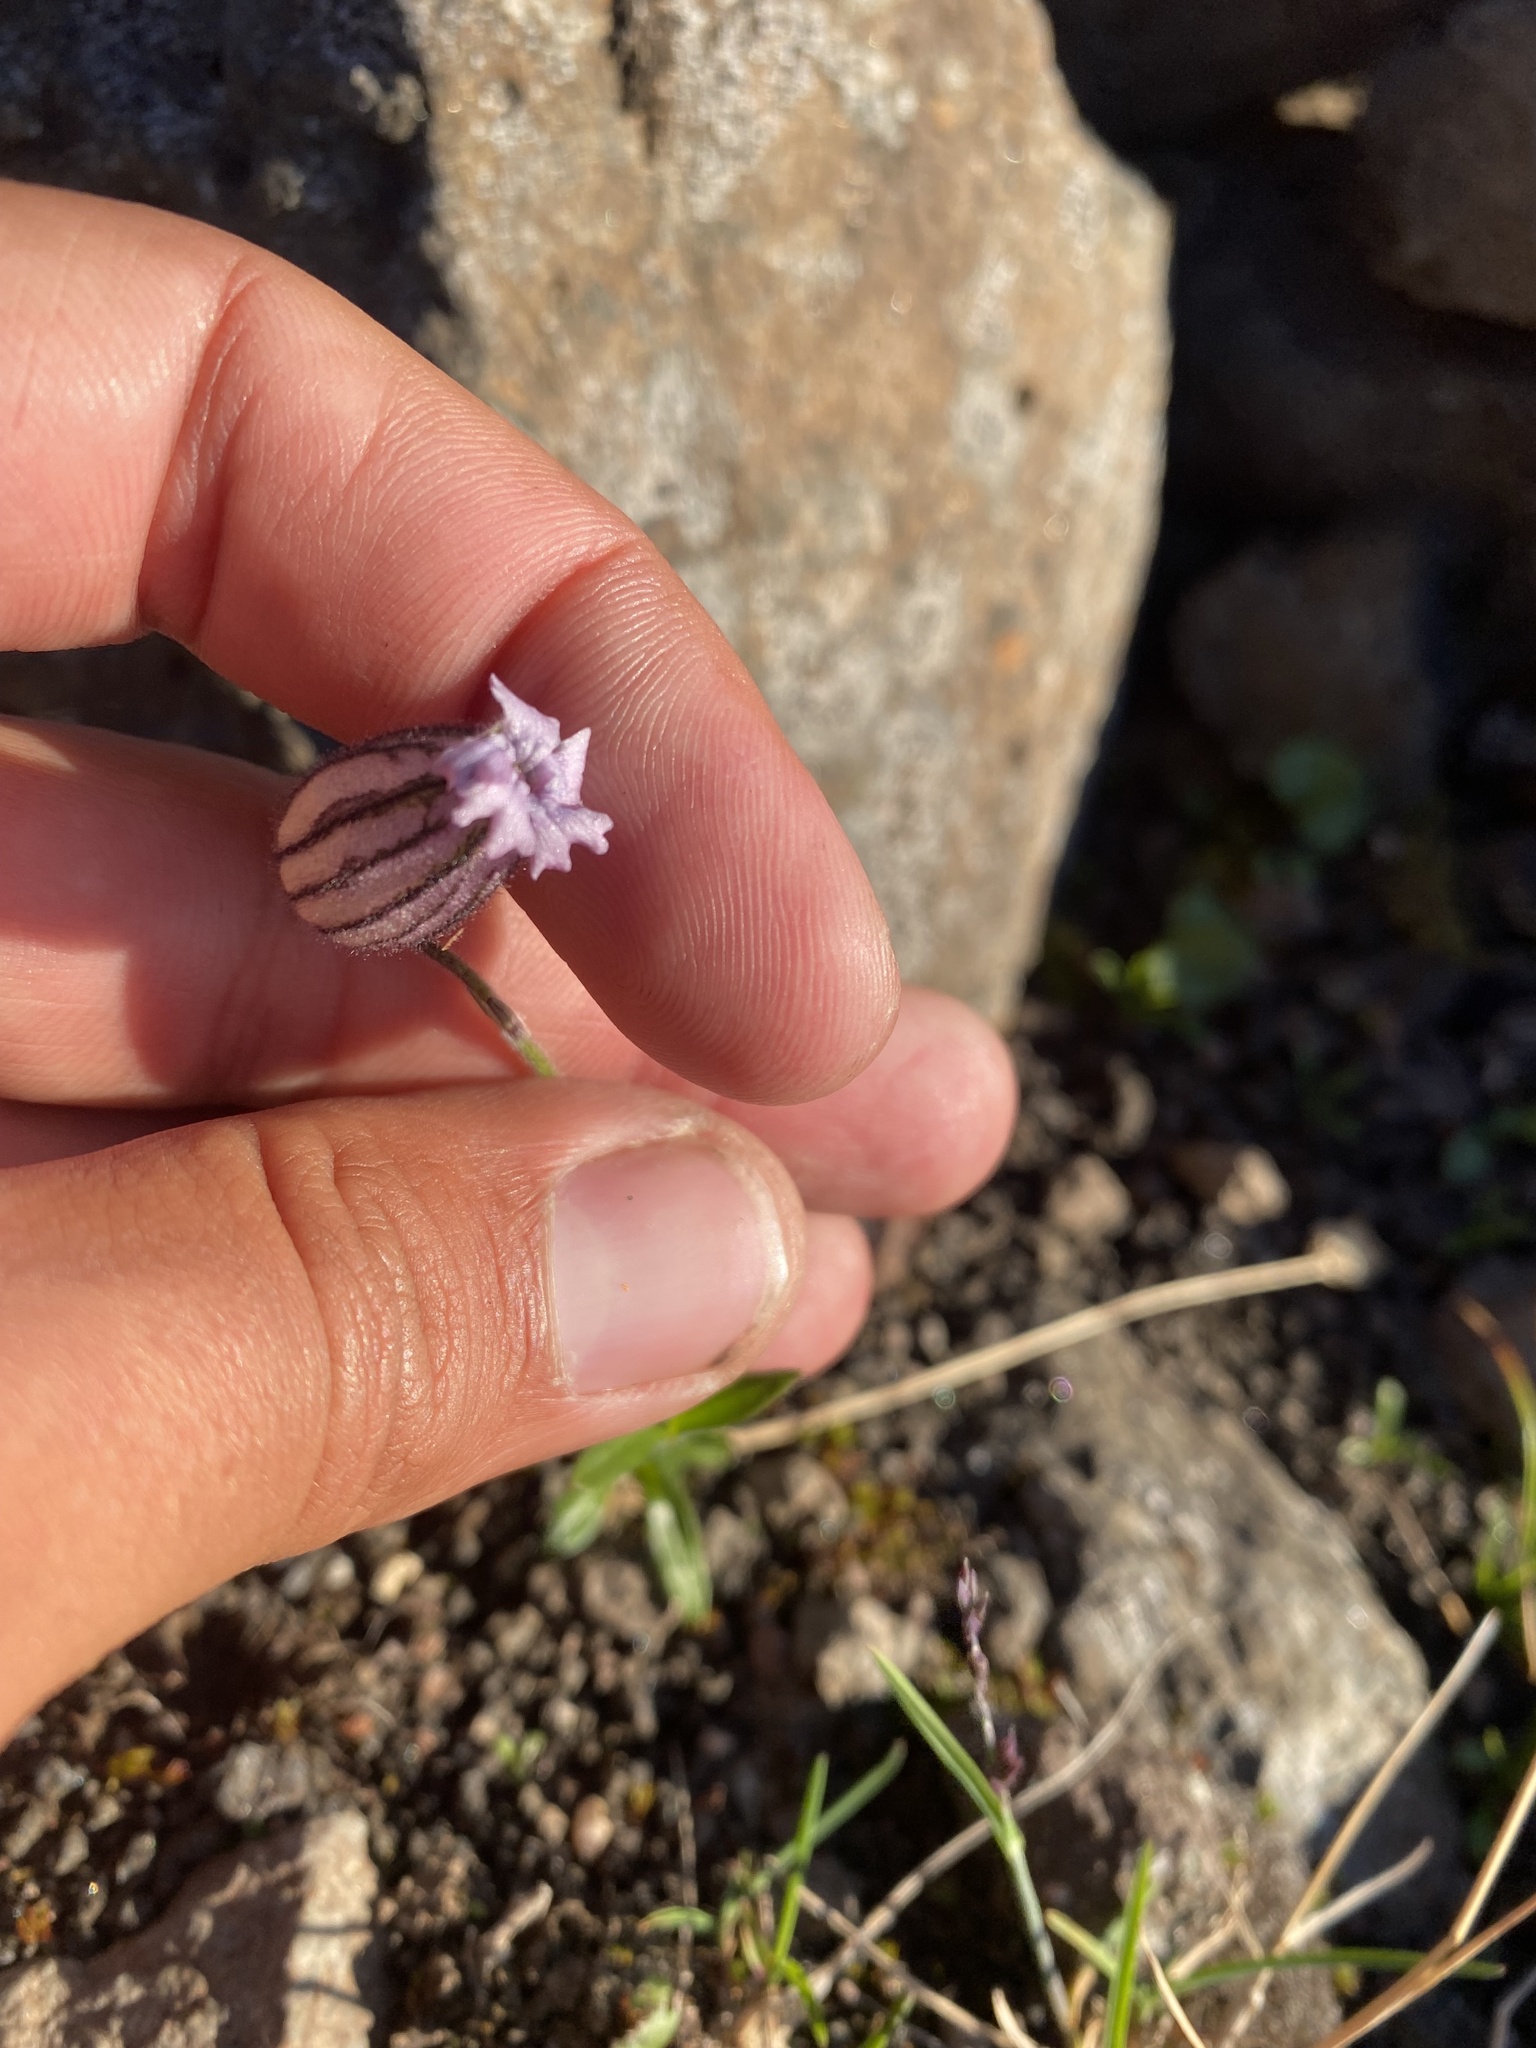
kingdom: Plantae
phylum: Tracheophyta
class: Magnoliopsida
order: Caryophyllales
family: Caryophyllaceae
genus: Silene
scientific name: Silene wahlbergella
